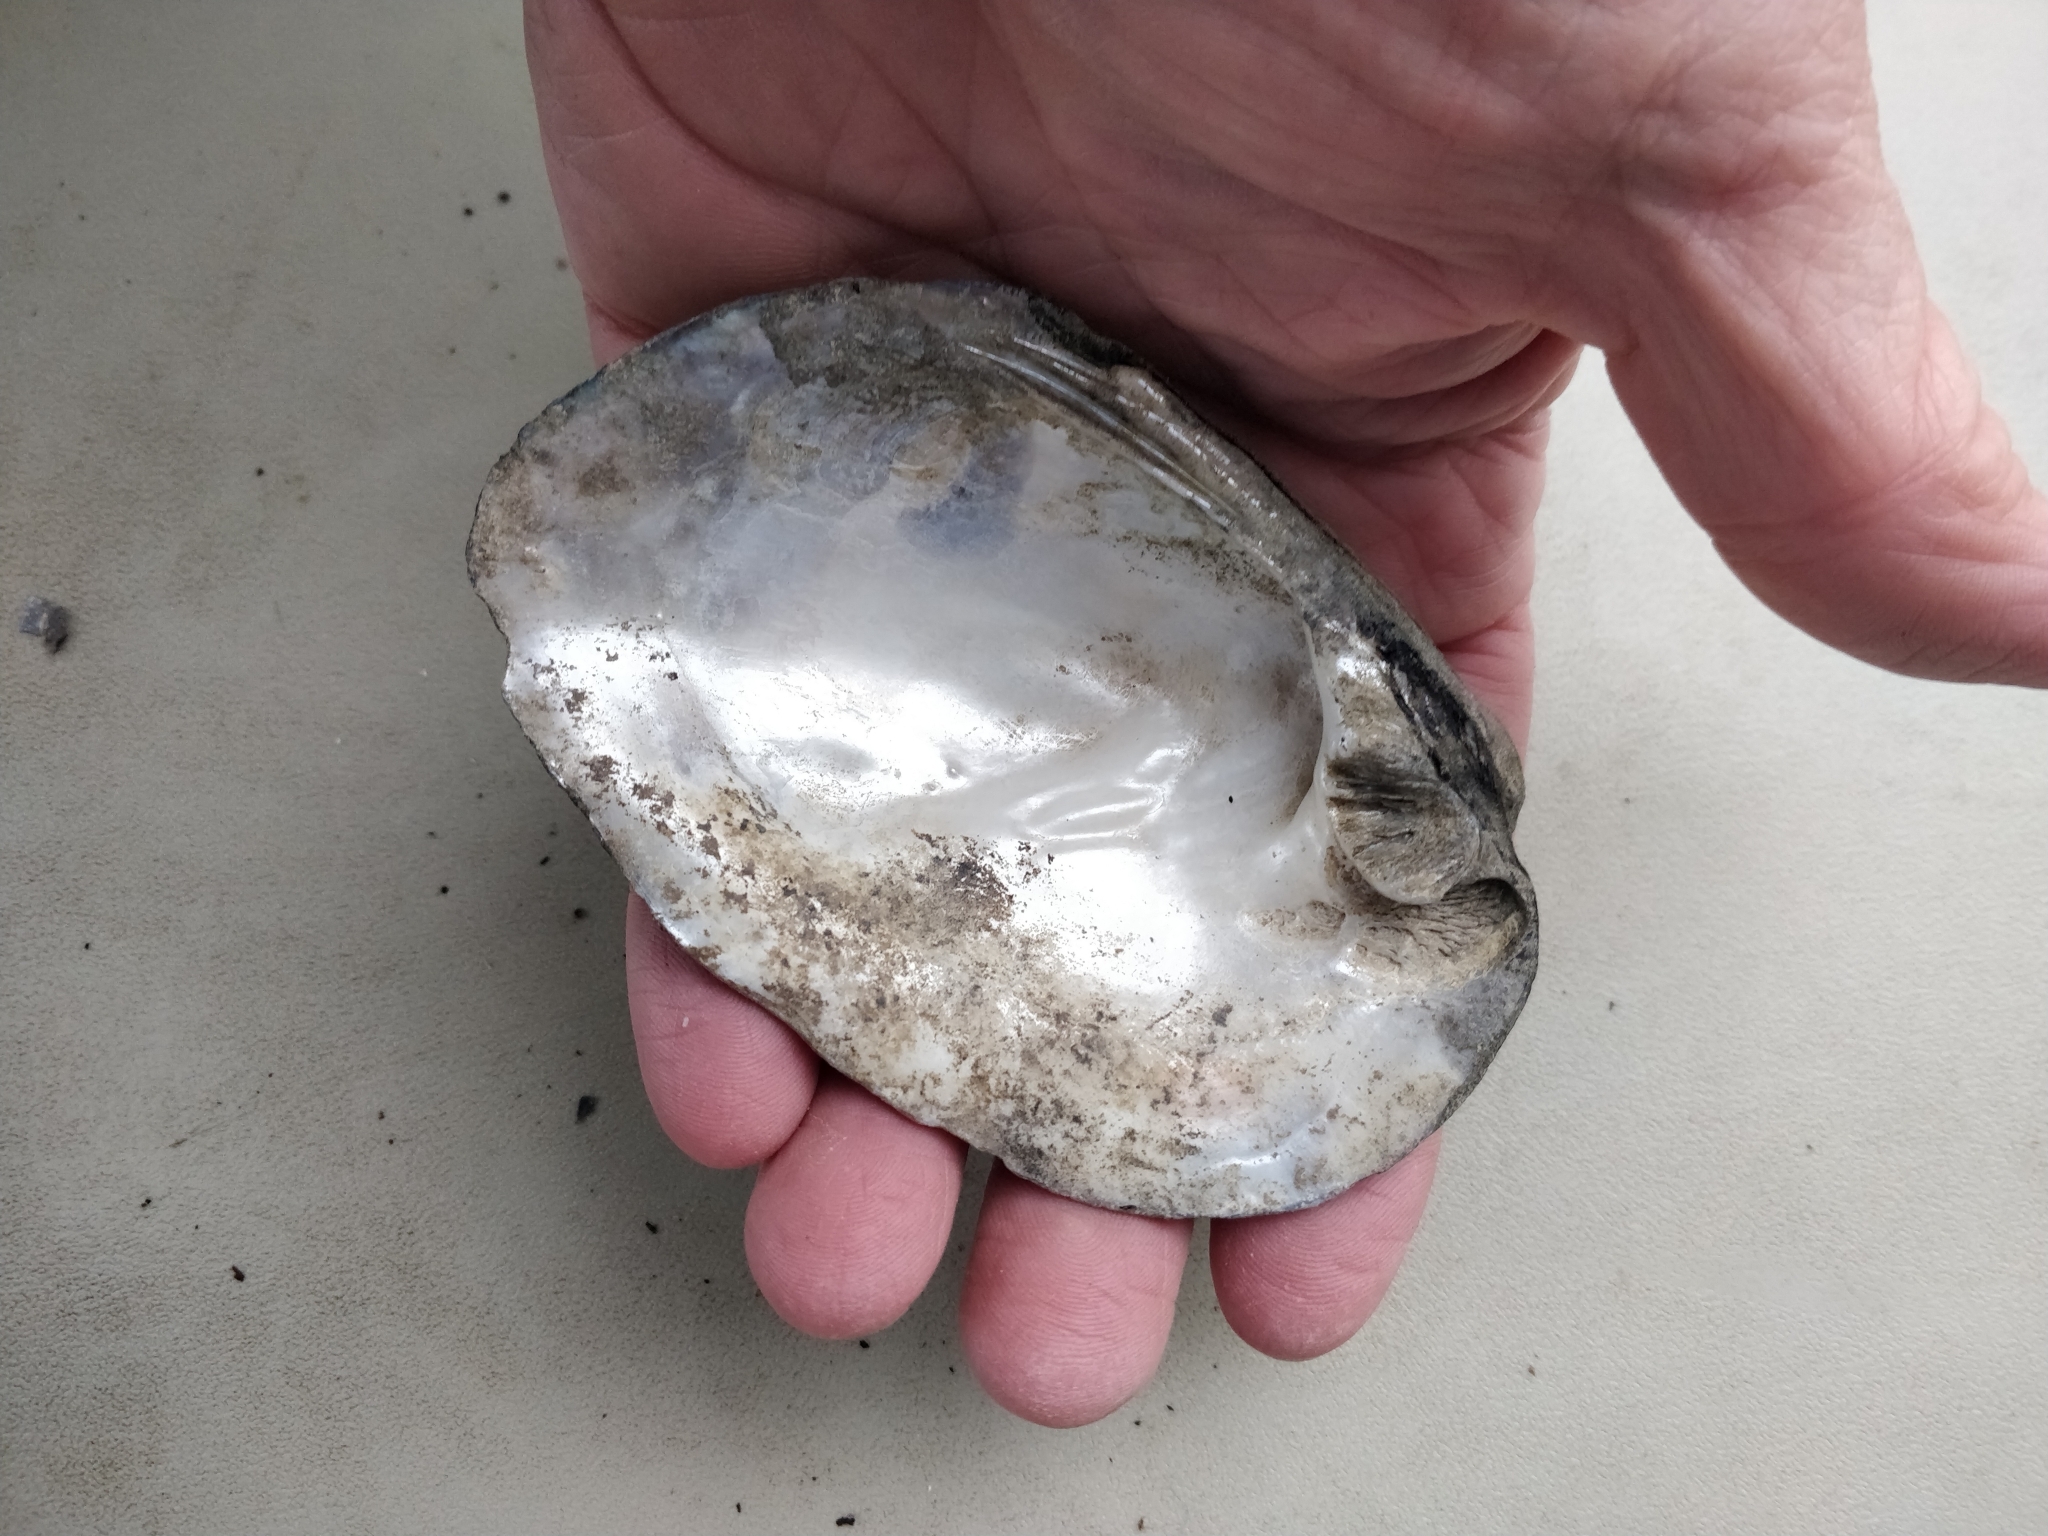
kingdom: Animalia
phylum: Mollusca
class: Bivalvia
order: Unionida
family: Unionidae
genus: Amblema
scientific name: Amblema plicata
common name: Threeridge
